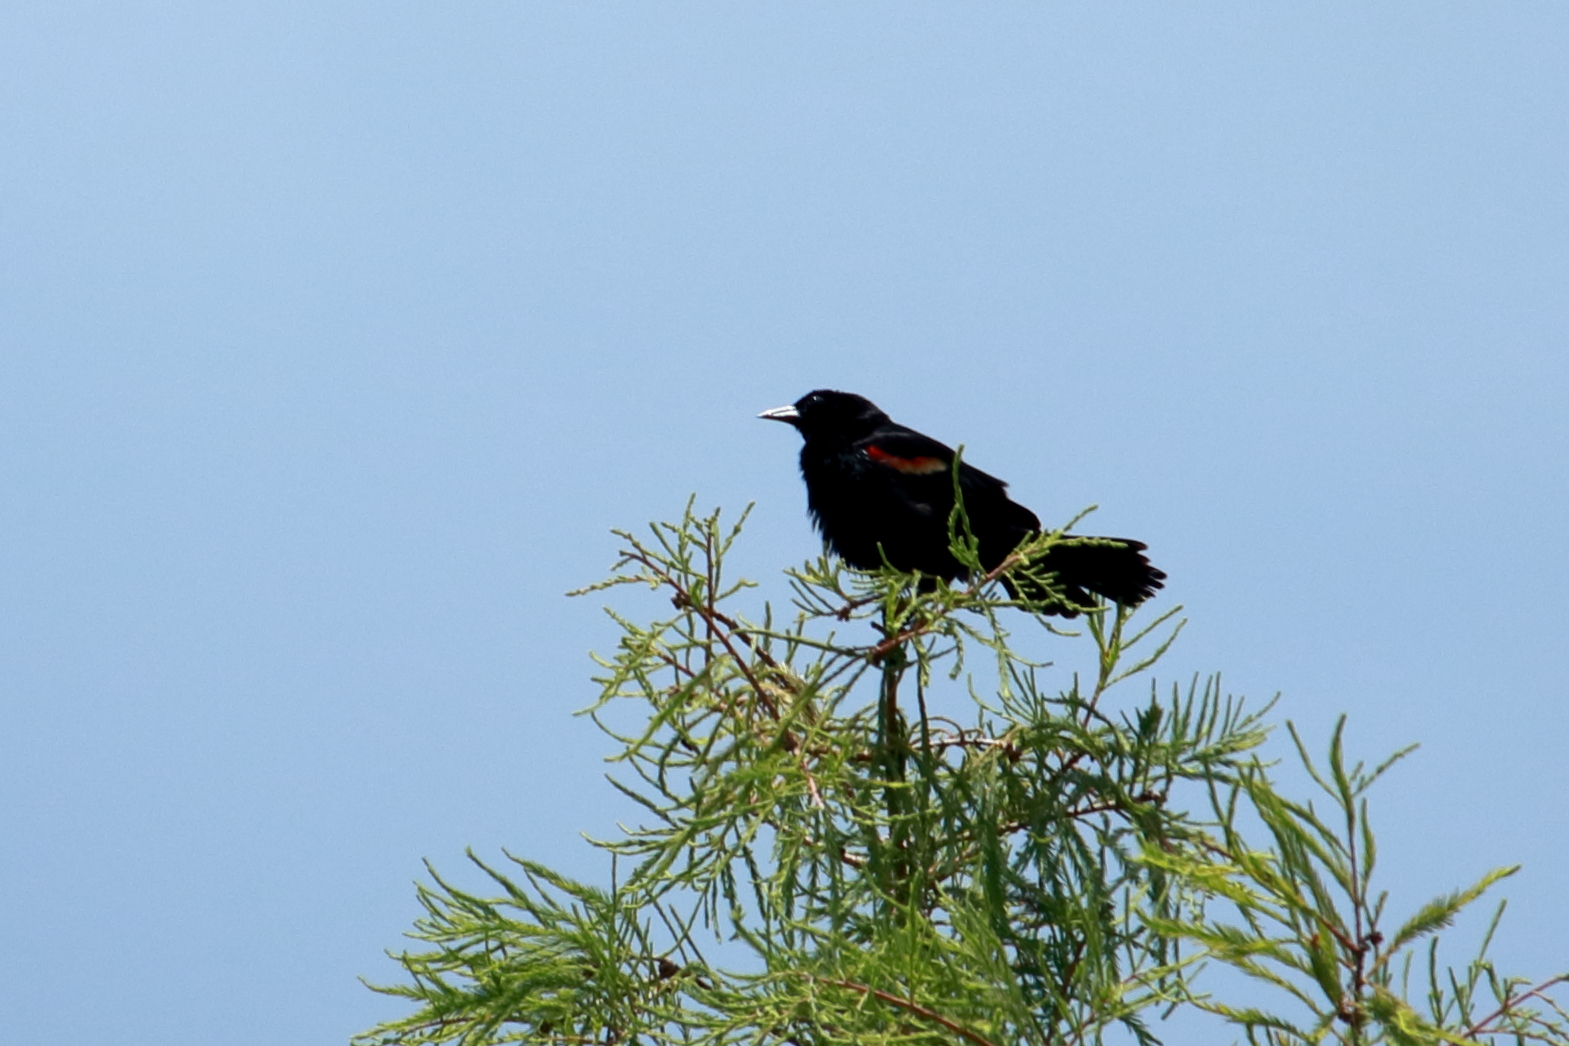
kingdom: Animalia
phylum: Chordata
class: Aves
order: Passeriformes
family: Icteridae
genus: Agelaius
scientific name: Agelaius phoeniceus
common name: Red-winged blackbird
